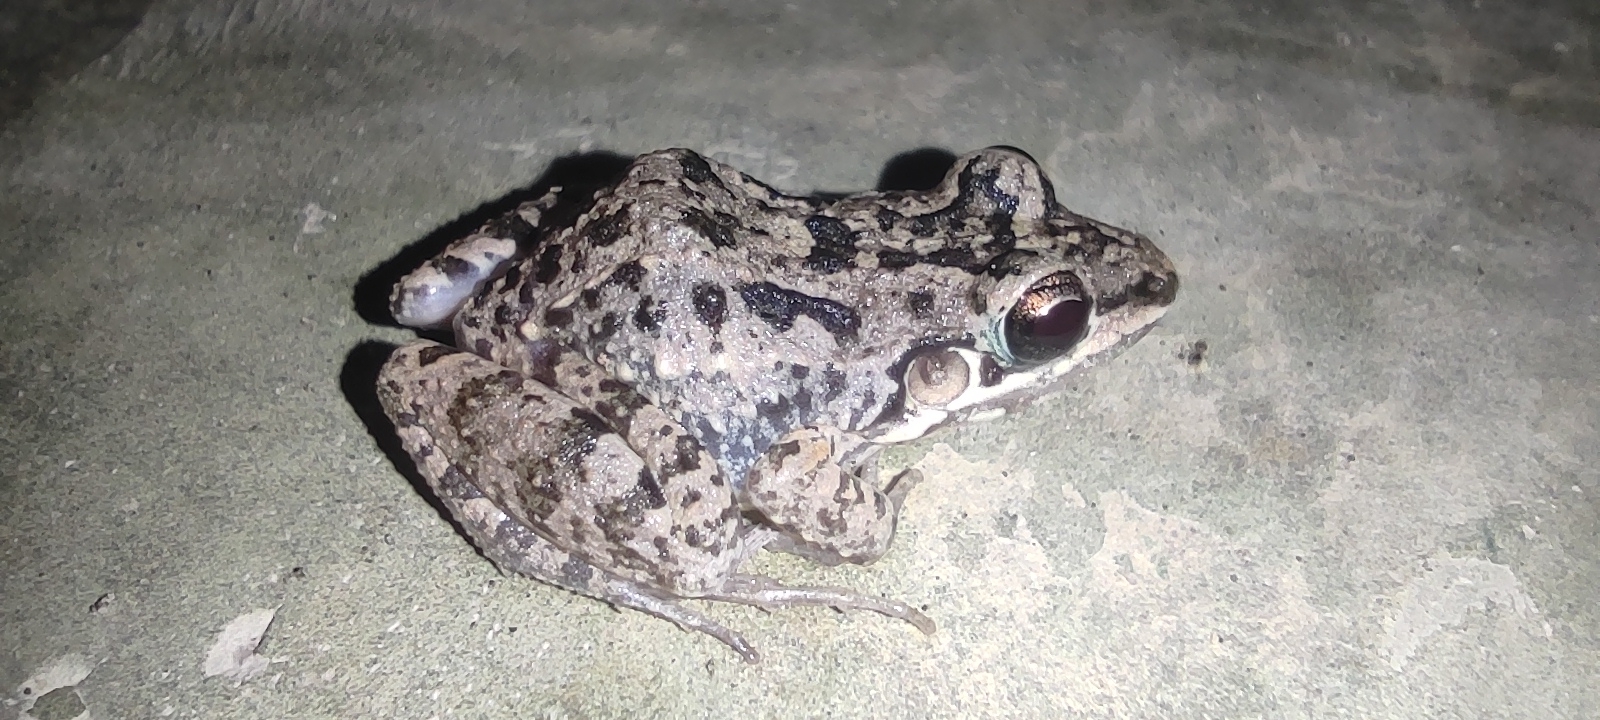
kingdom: Animalia
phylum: Chordata
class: Amphibia
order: Anura
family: Leptodactylidae
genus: Leptodactylus
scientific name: Leptodactylus fragilis
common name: Mexican white-lipped frog
